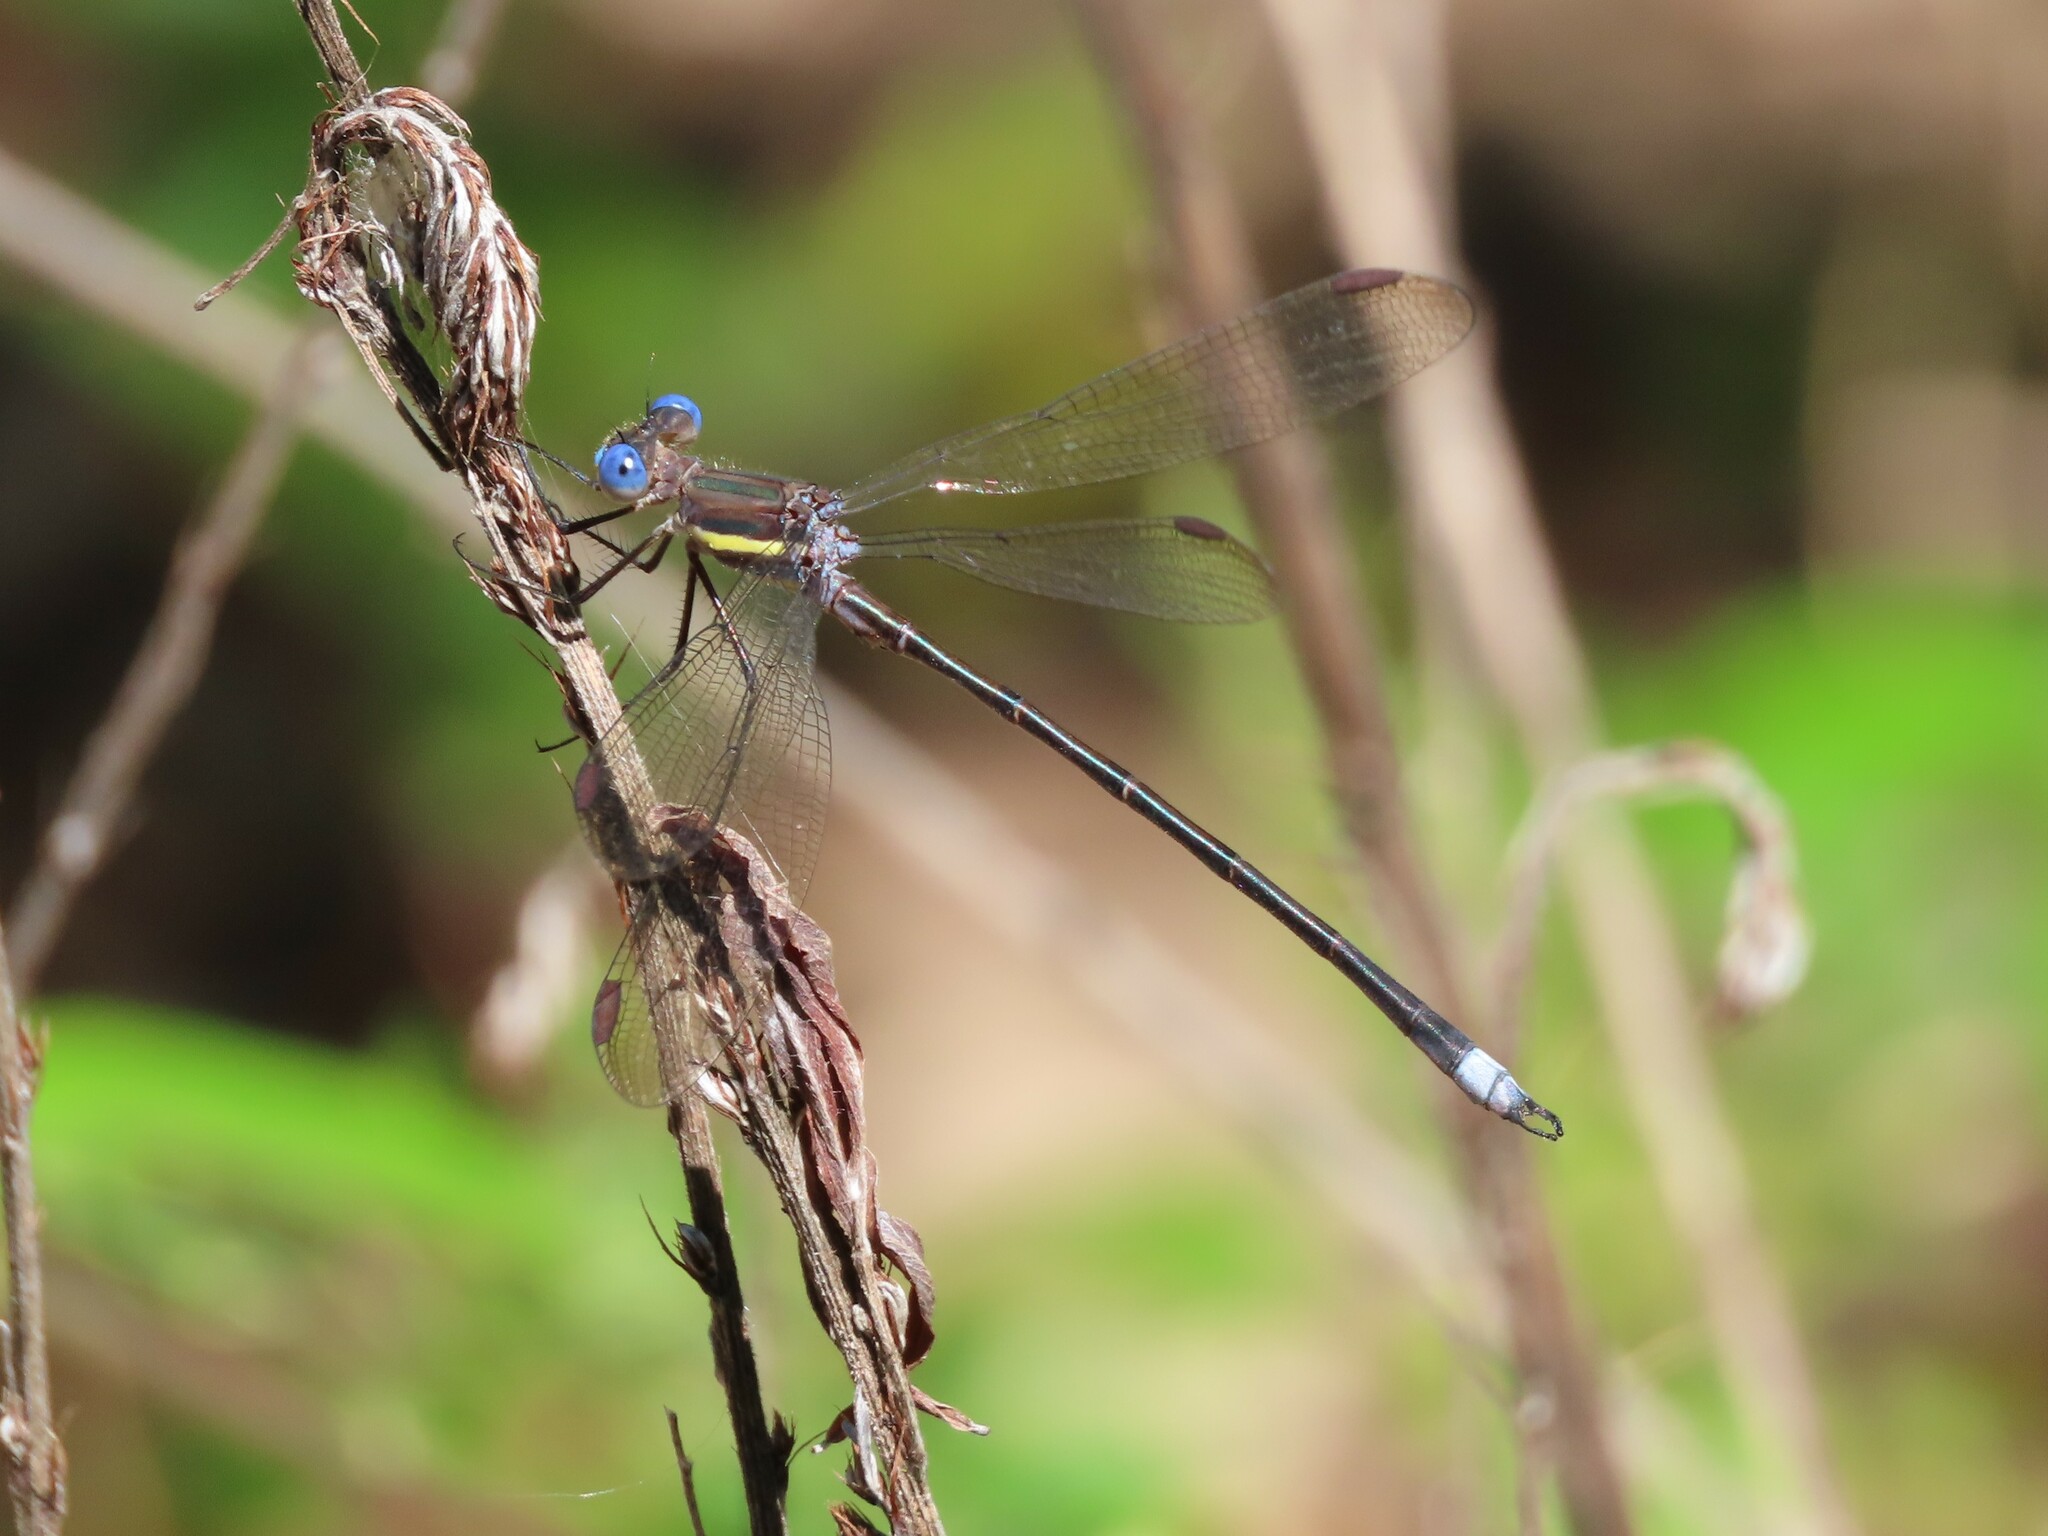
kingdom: Animalia
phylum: Arthropoda
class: Insecta
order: Odonata
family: Lestidae
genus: Archilestes
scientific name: Archilestes grandis
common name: Great spreadwing
